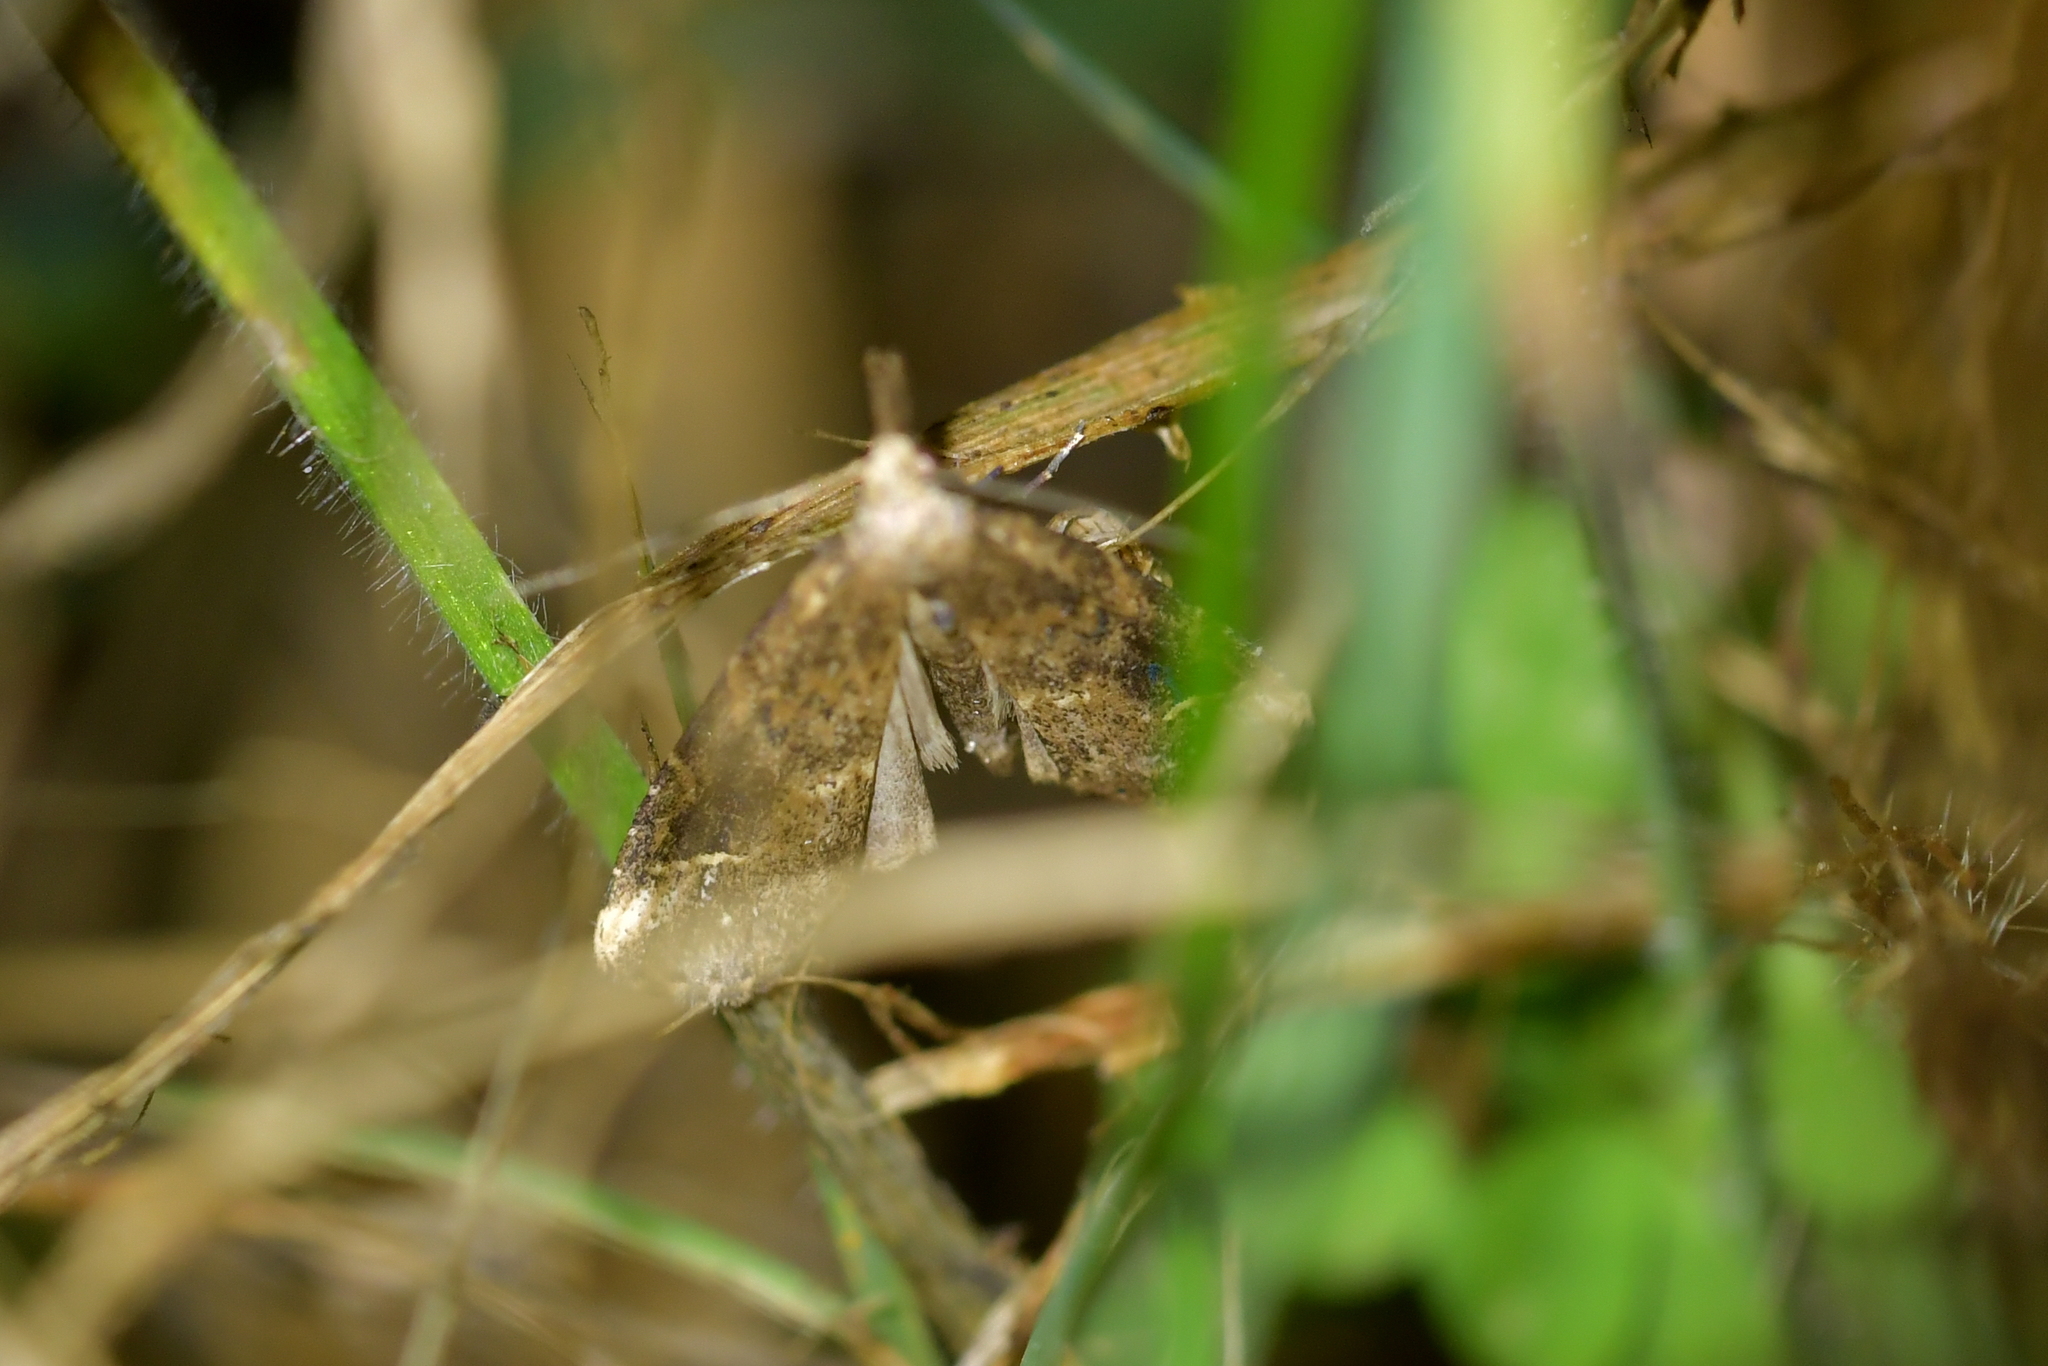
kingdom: Animalia
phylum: Arthropoda
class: Insecta
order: Lepidoptera
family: Erebidae
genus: Schrankia
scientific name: Schrankia costaestrigalis
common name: Pinion-streaked snout
